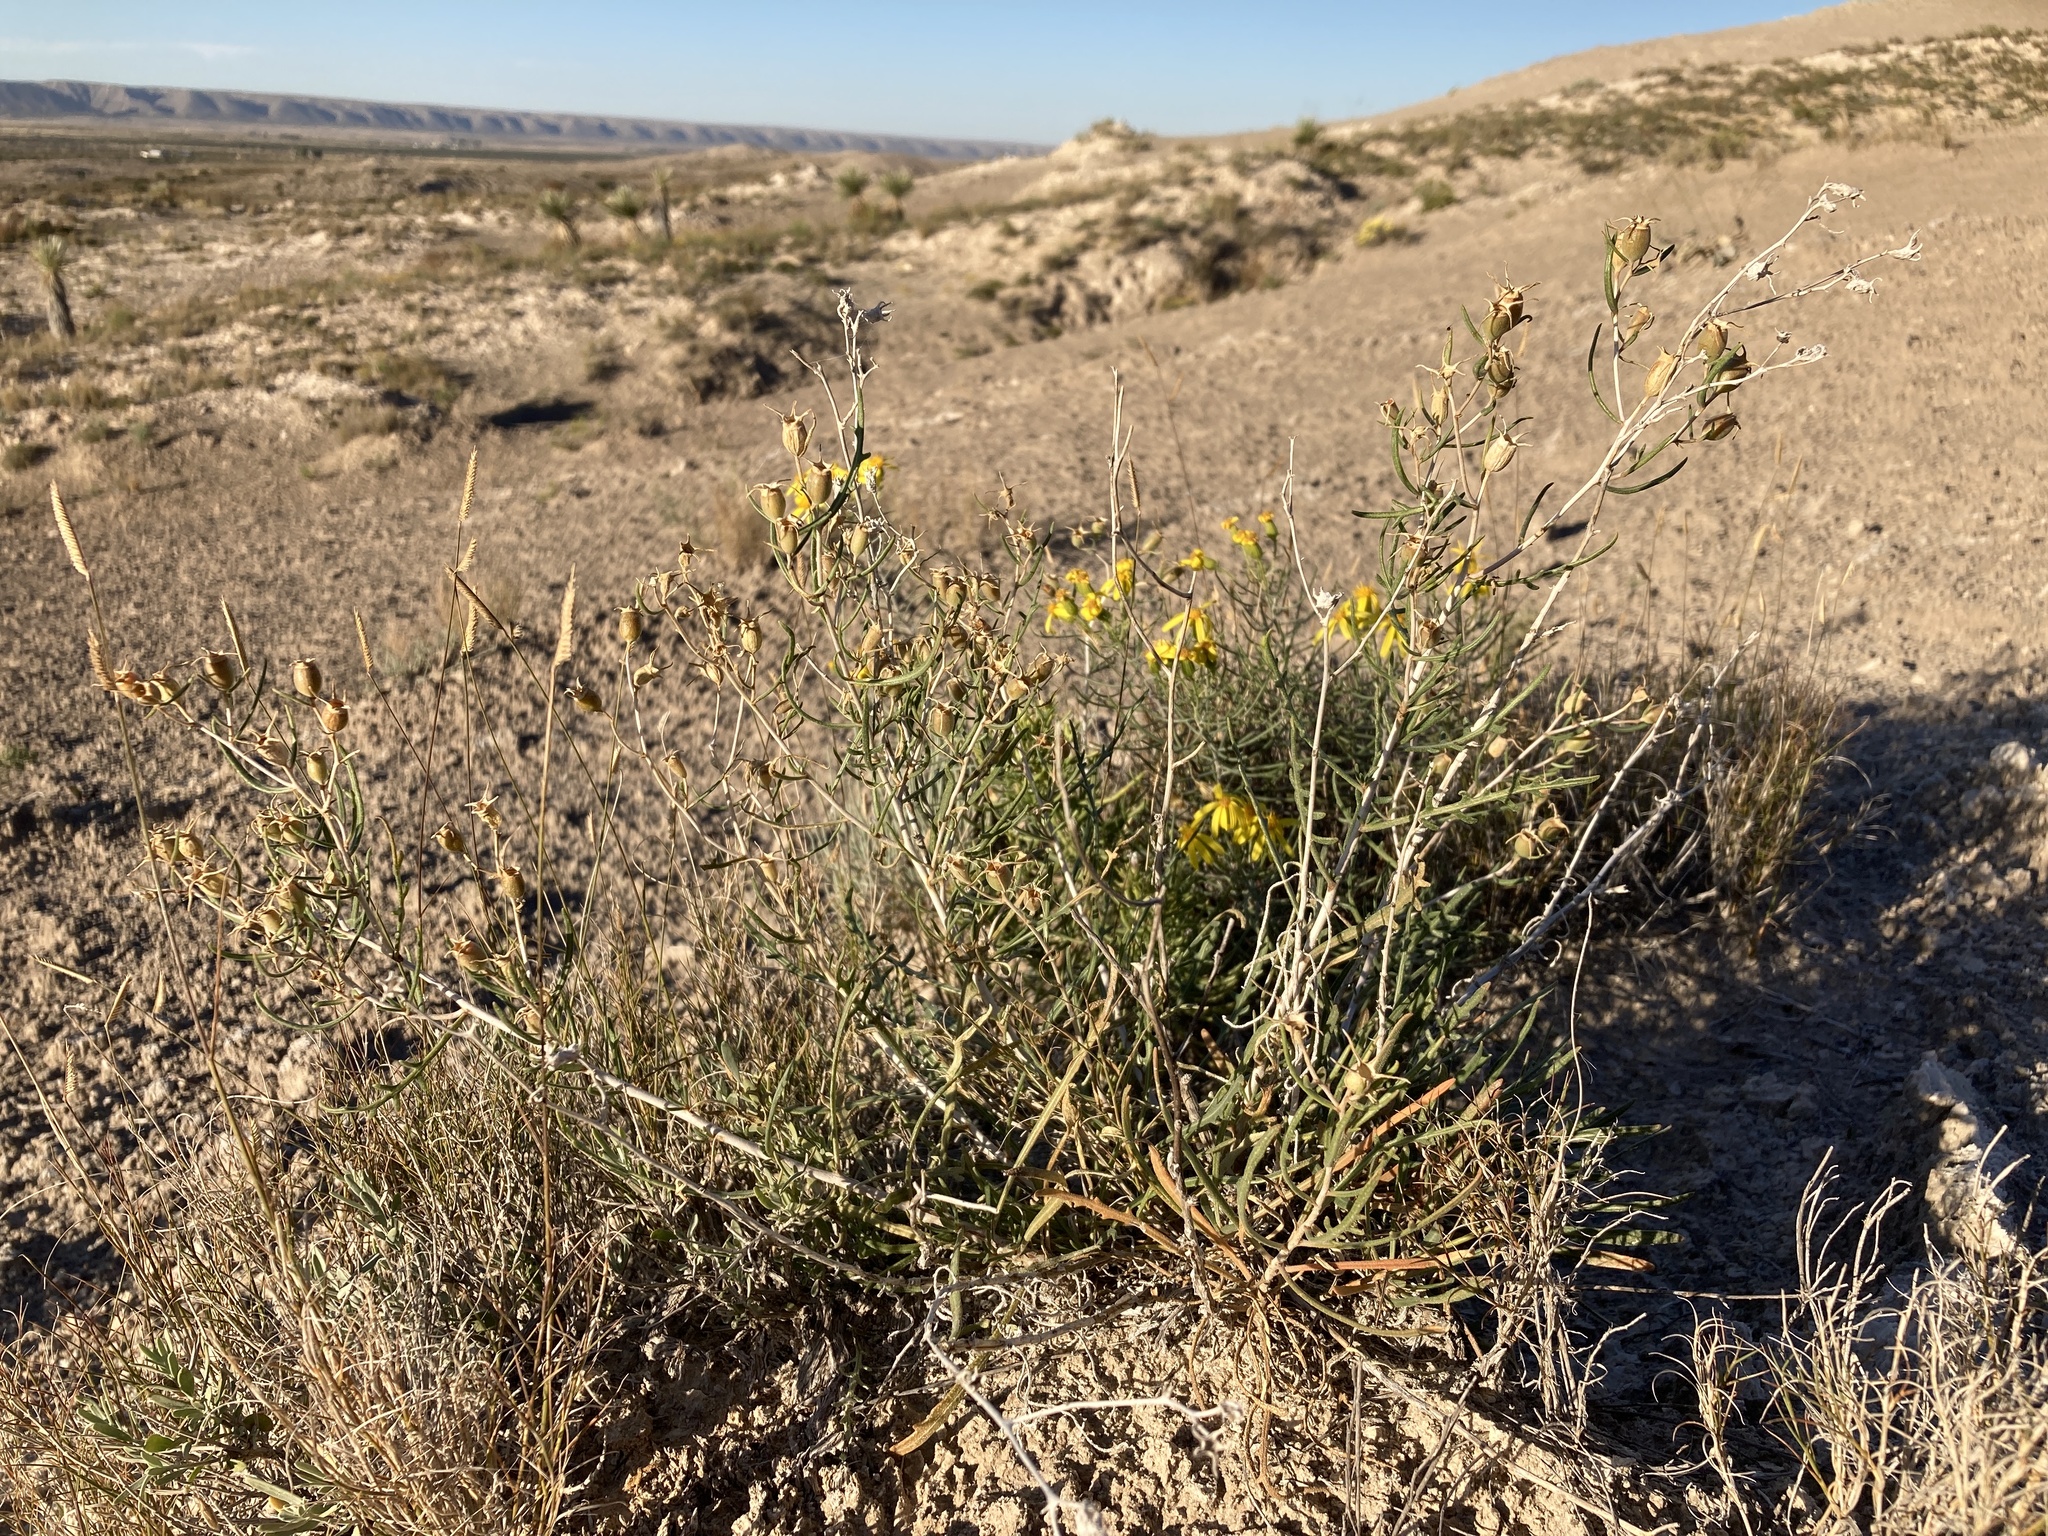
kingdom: Plantae
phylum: Tracheophyta
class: Magnoliopsida
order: Cornales
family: Loasaceae
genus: Mentzelia
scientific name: Mentzelia humilis
